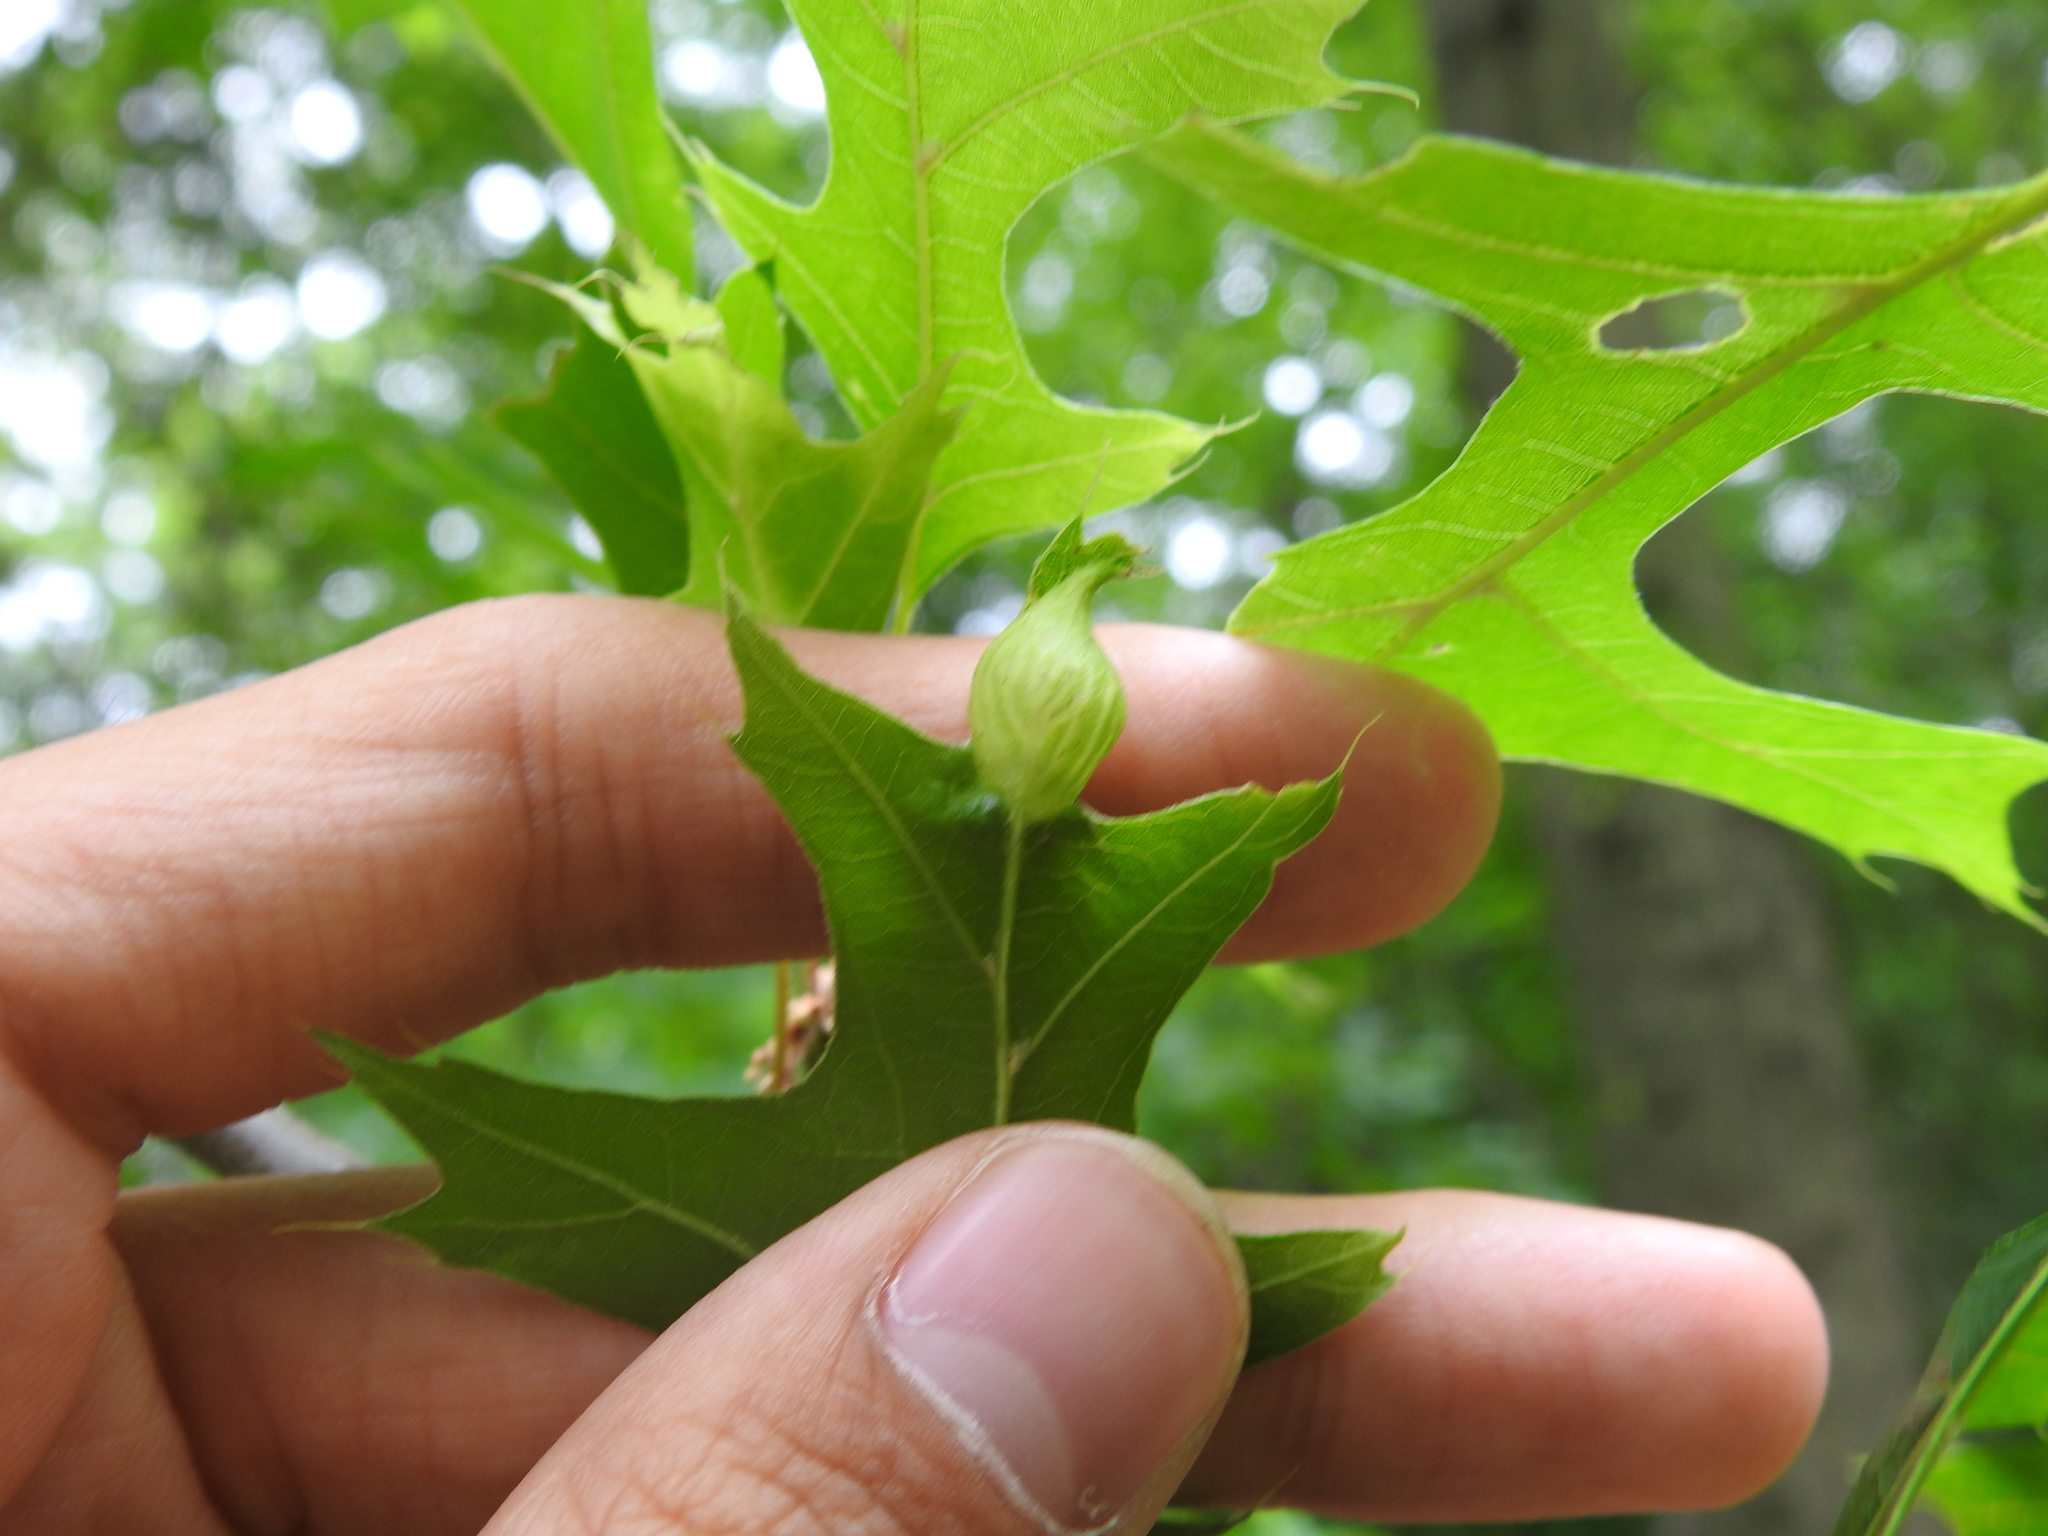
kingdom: Animalia
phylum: Arthropoda
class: Insecta
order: Hymenoptera
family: Cynipidae
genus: Dryocosmus
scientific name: Dryocosmus
